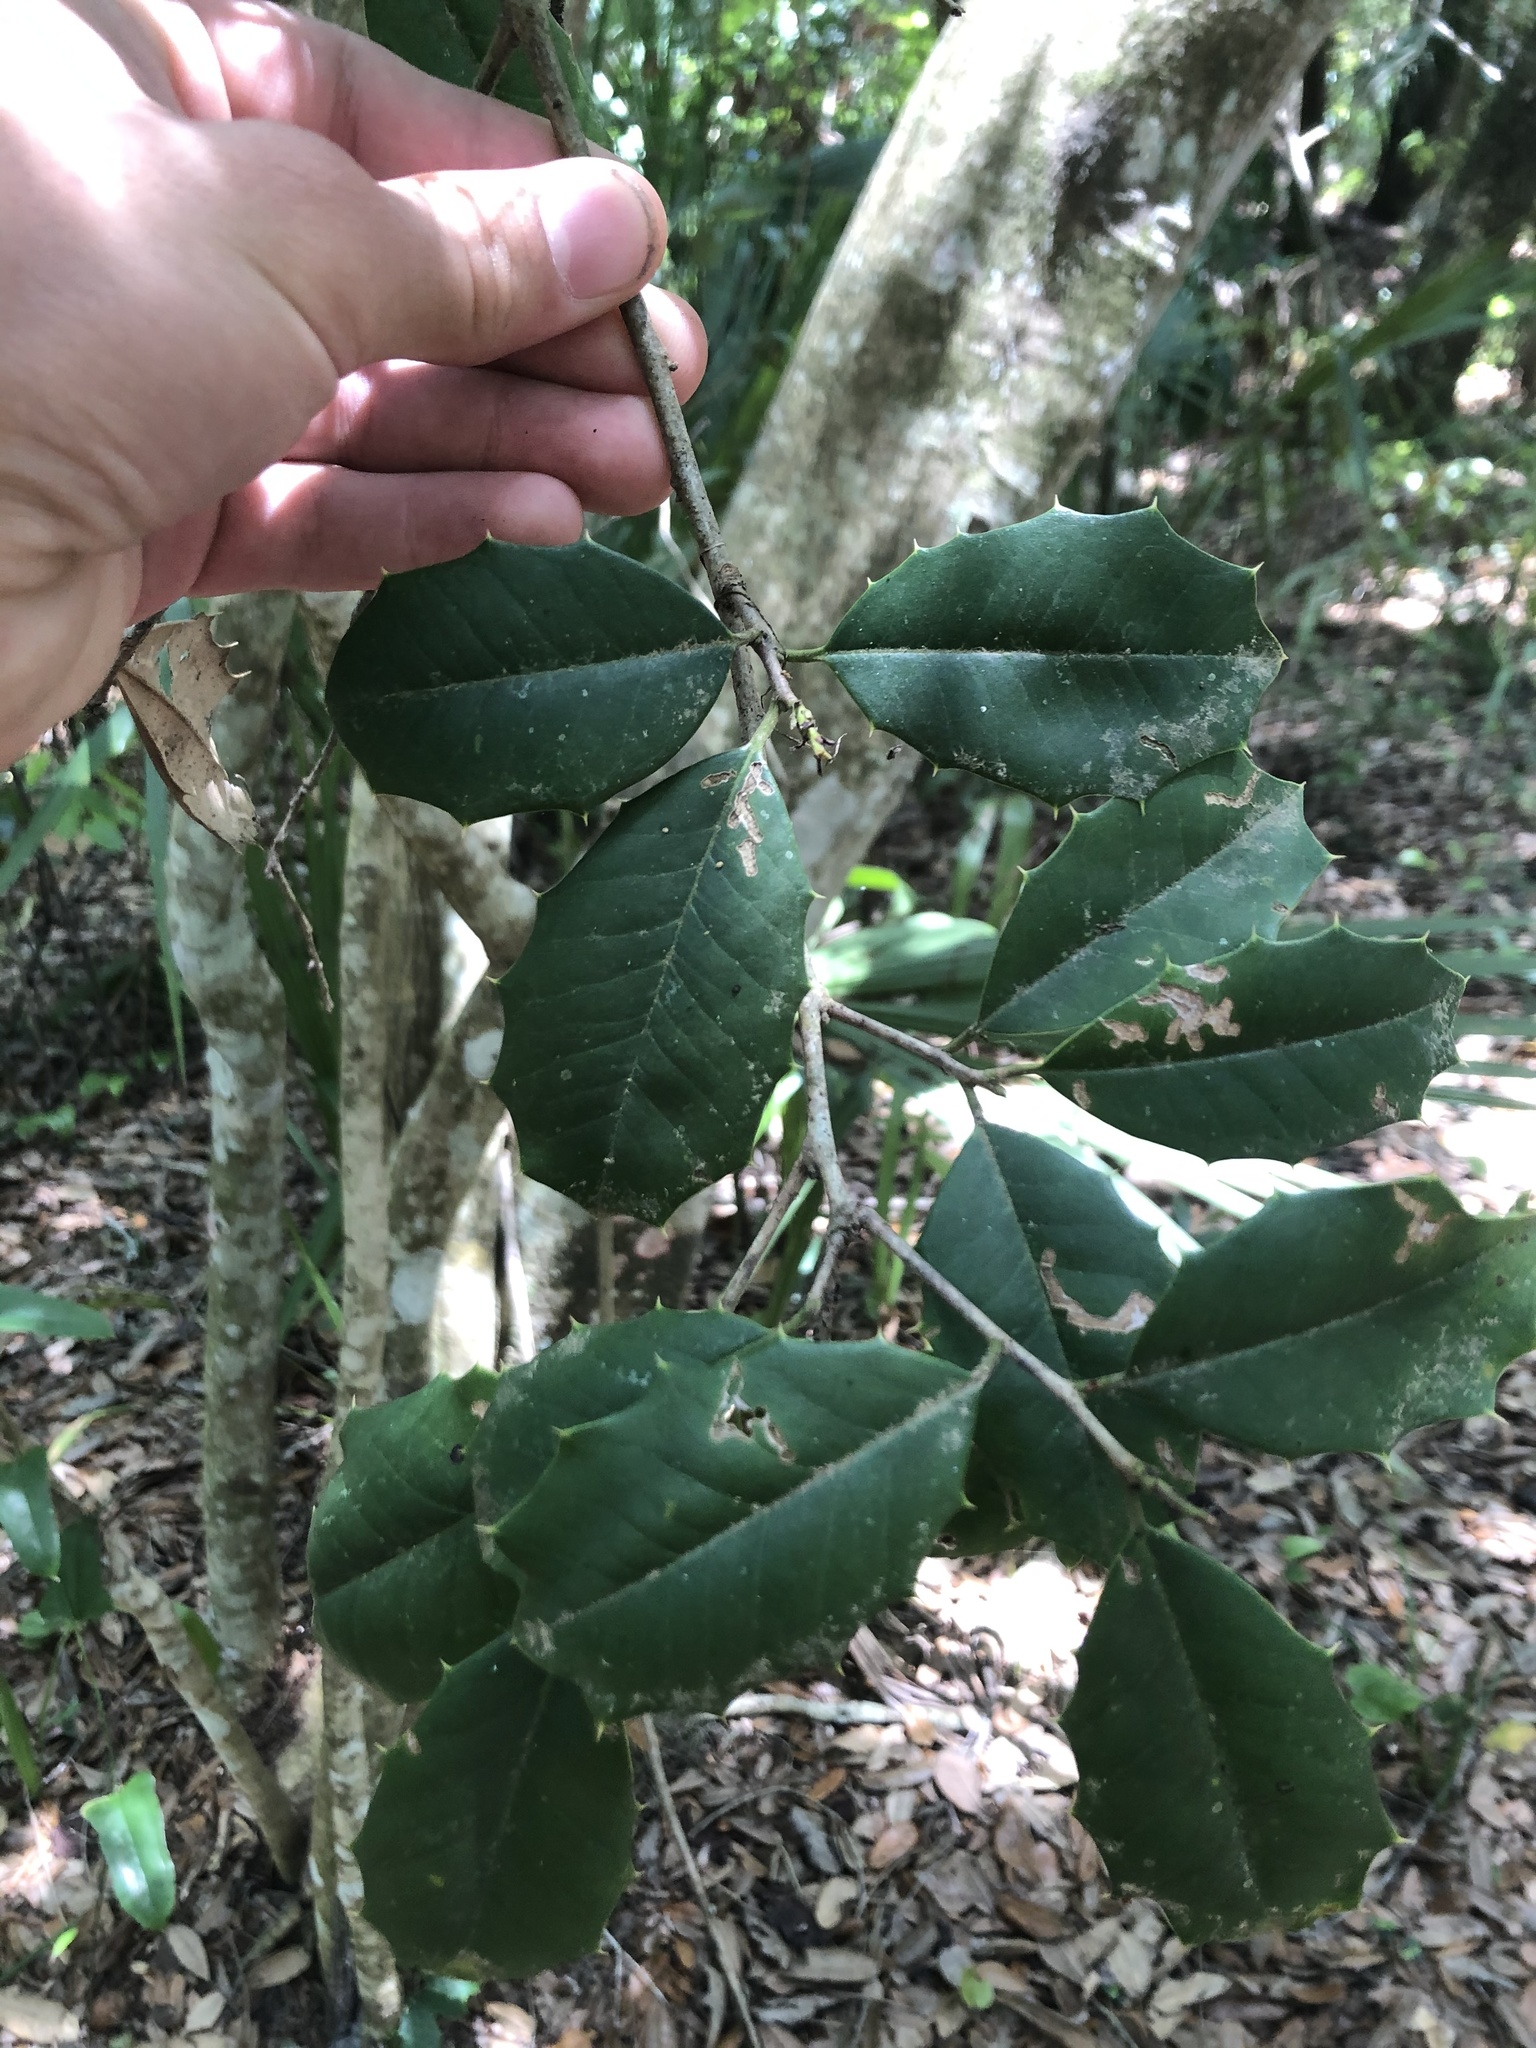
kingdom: Plantae
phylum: Tracheophyta
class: Magnoliopsida
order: Aquifoliales
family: Aquifoliaceae
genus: Ilex
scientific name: Ilex opaca
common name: American holly
